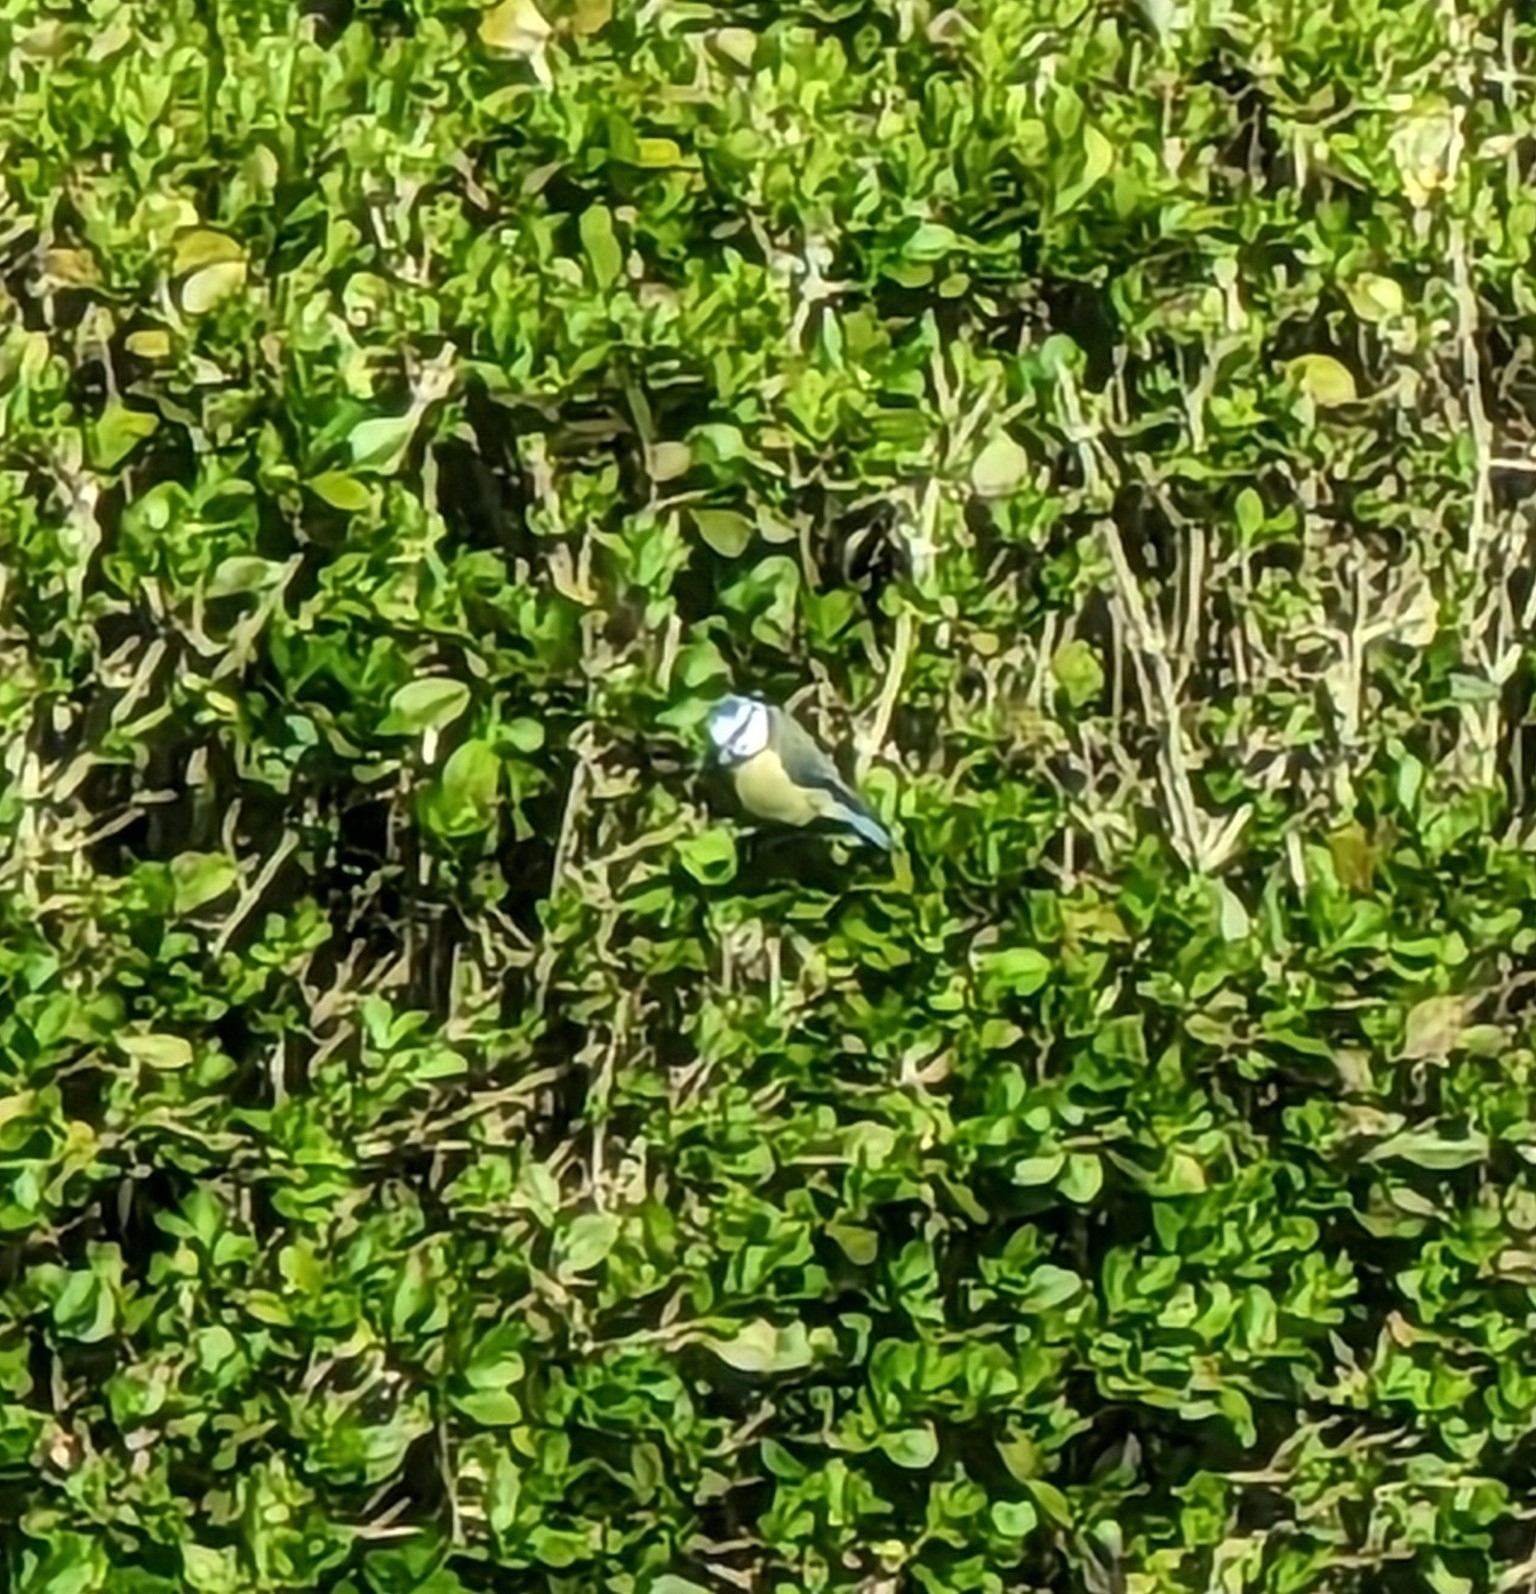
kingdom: Animalia
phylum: Chordata
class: Aves
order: Passeriformes
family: Paridae
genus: Cyanistes
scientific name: Cyanistes caeruleus
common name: Eurasian blue tit
